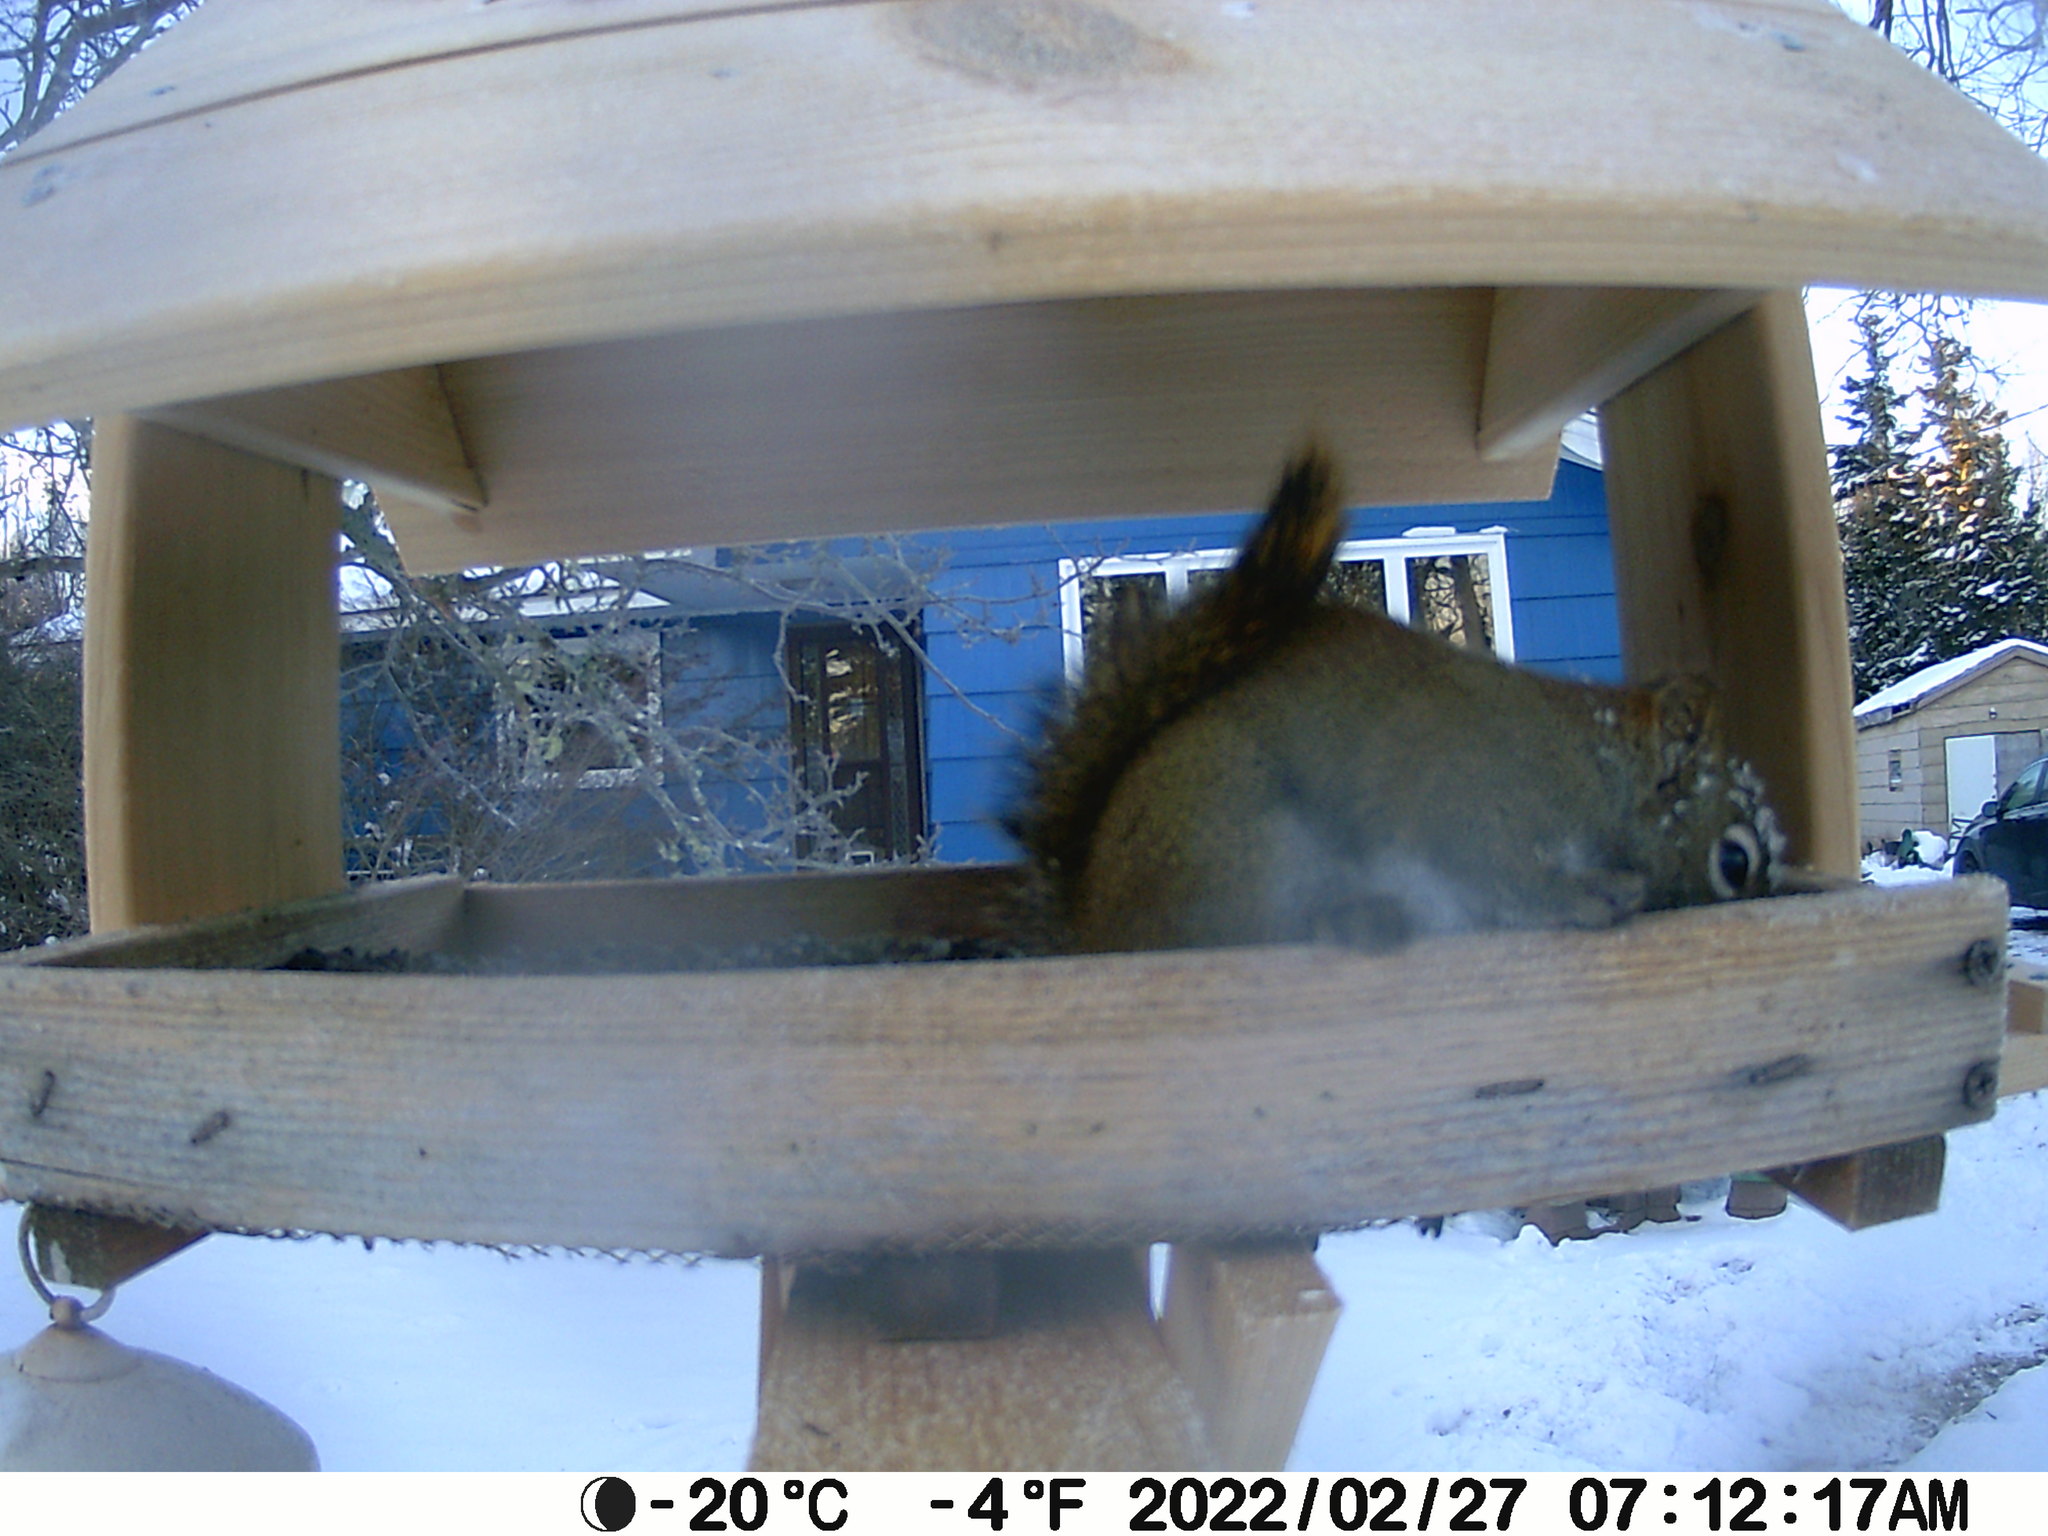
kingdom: Animalia
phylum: Chordata
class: Mammalia
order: Rodentia
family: Sciuridae
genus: Tamiasciurus
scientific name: Tamiasciurus hudsonicus
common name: Red squirrel
